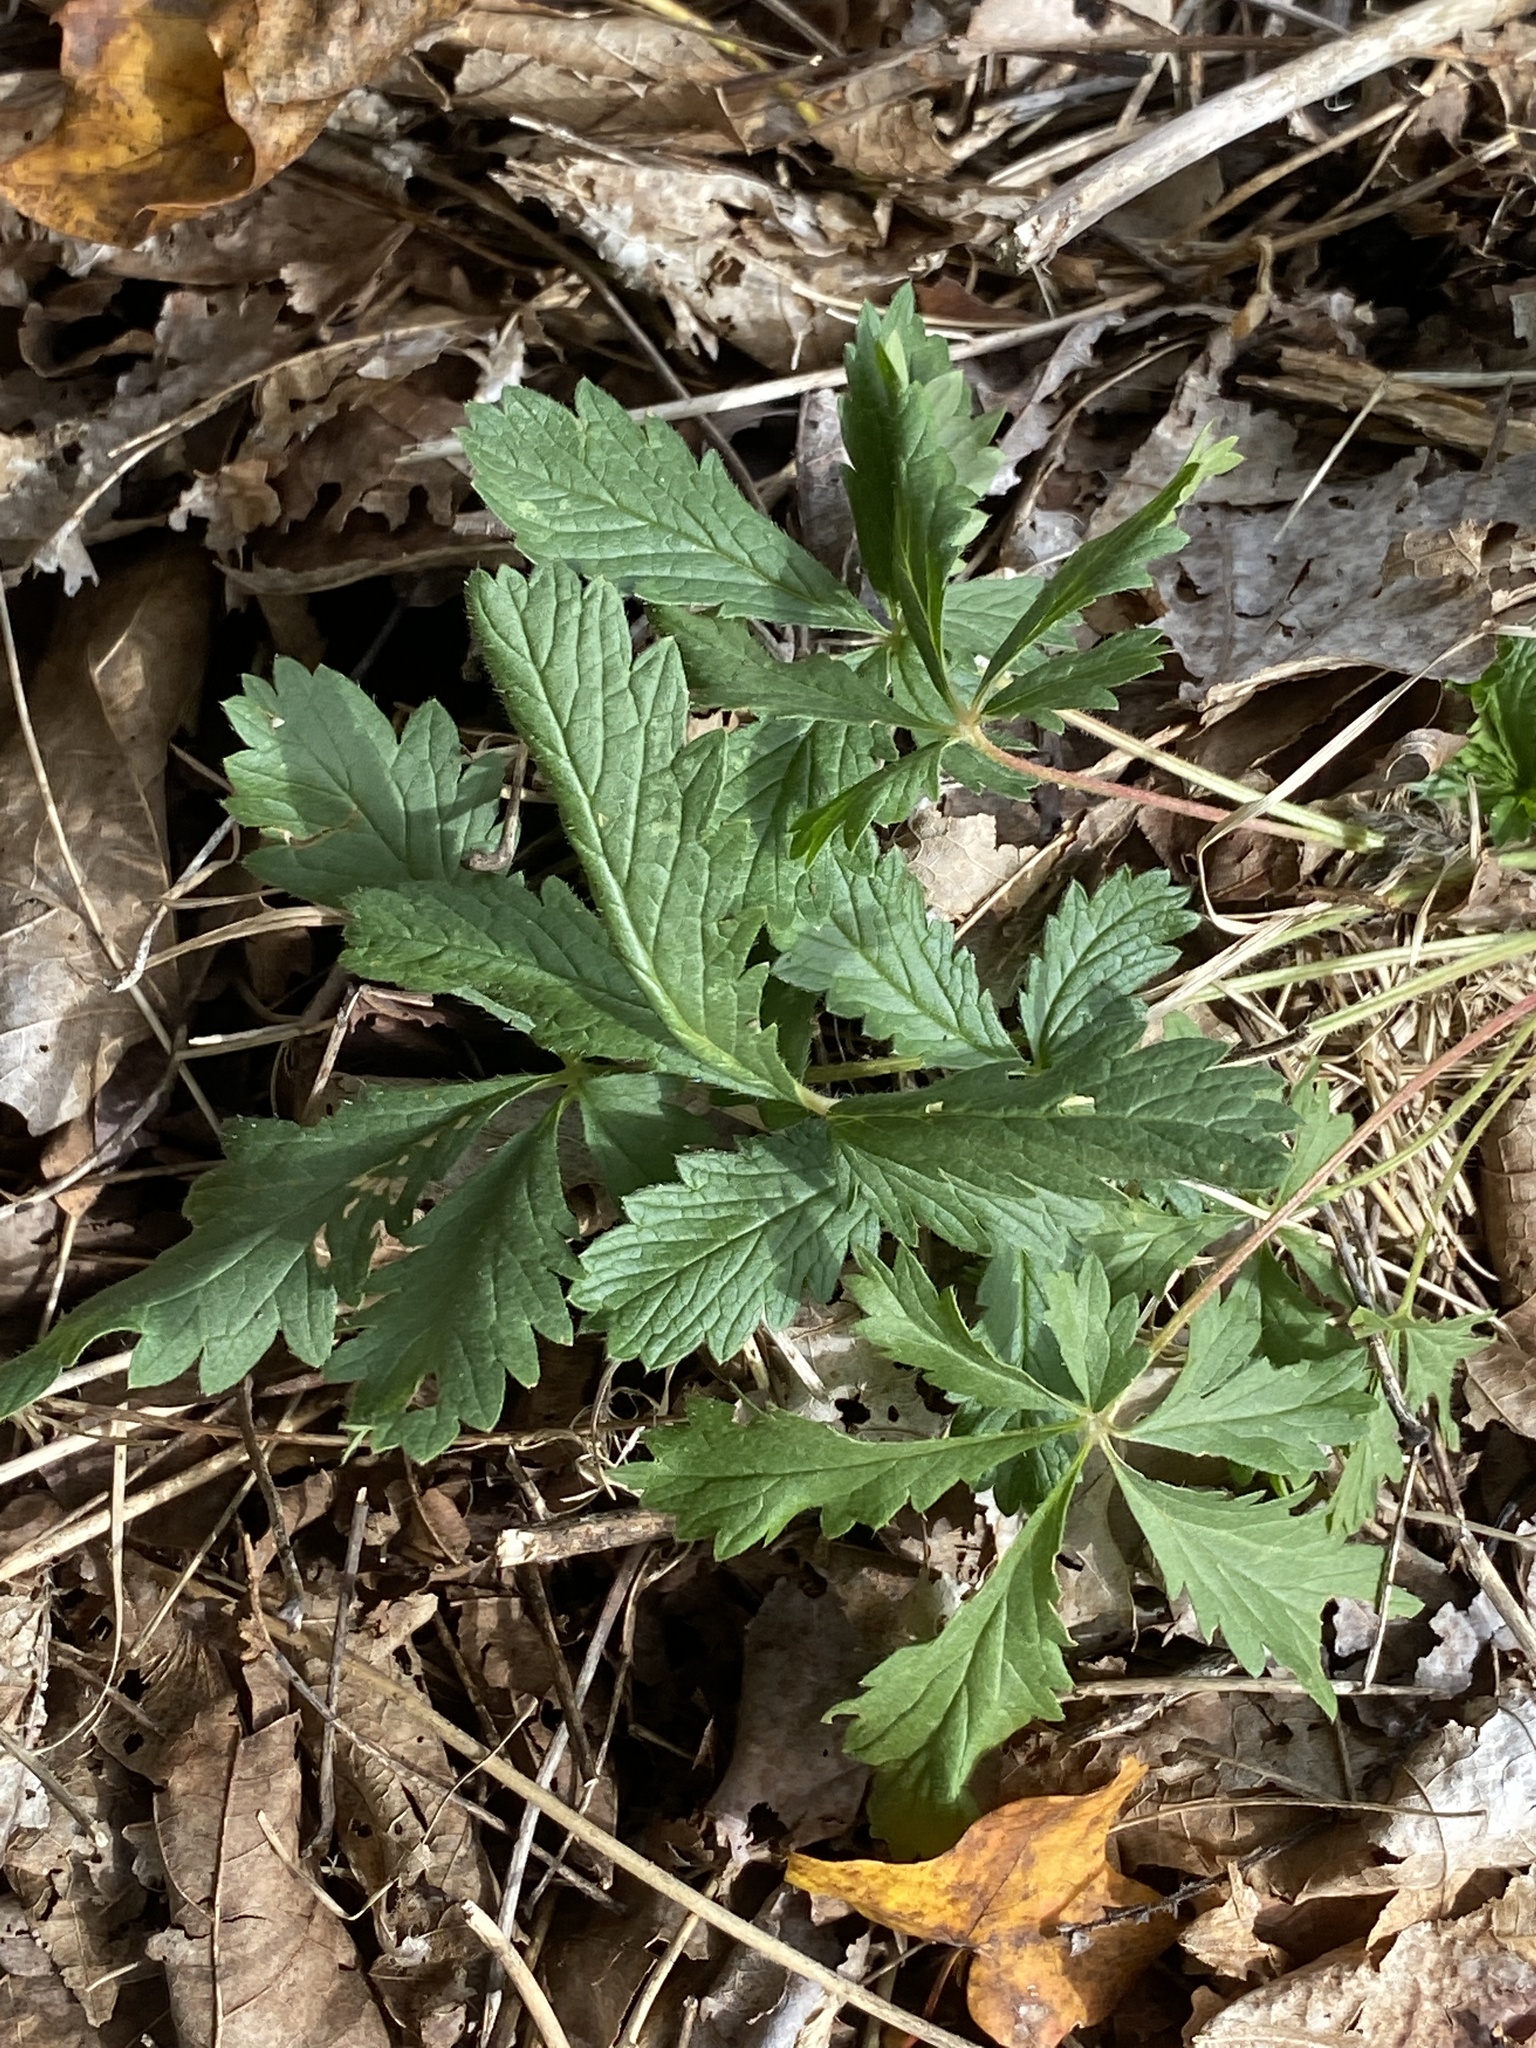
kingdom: Plantae
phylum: Tracheophyta
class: Magnoliopsida
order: Rosales
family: Rosaceae
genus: Potentilla
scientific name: Potentilla recta
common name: Sulphur cinquefoil
